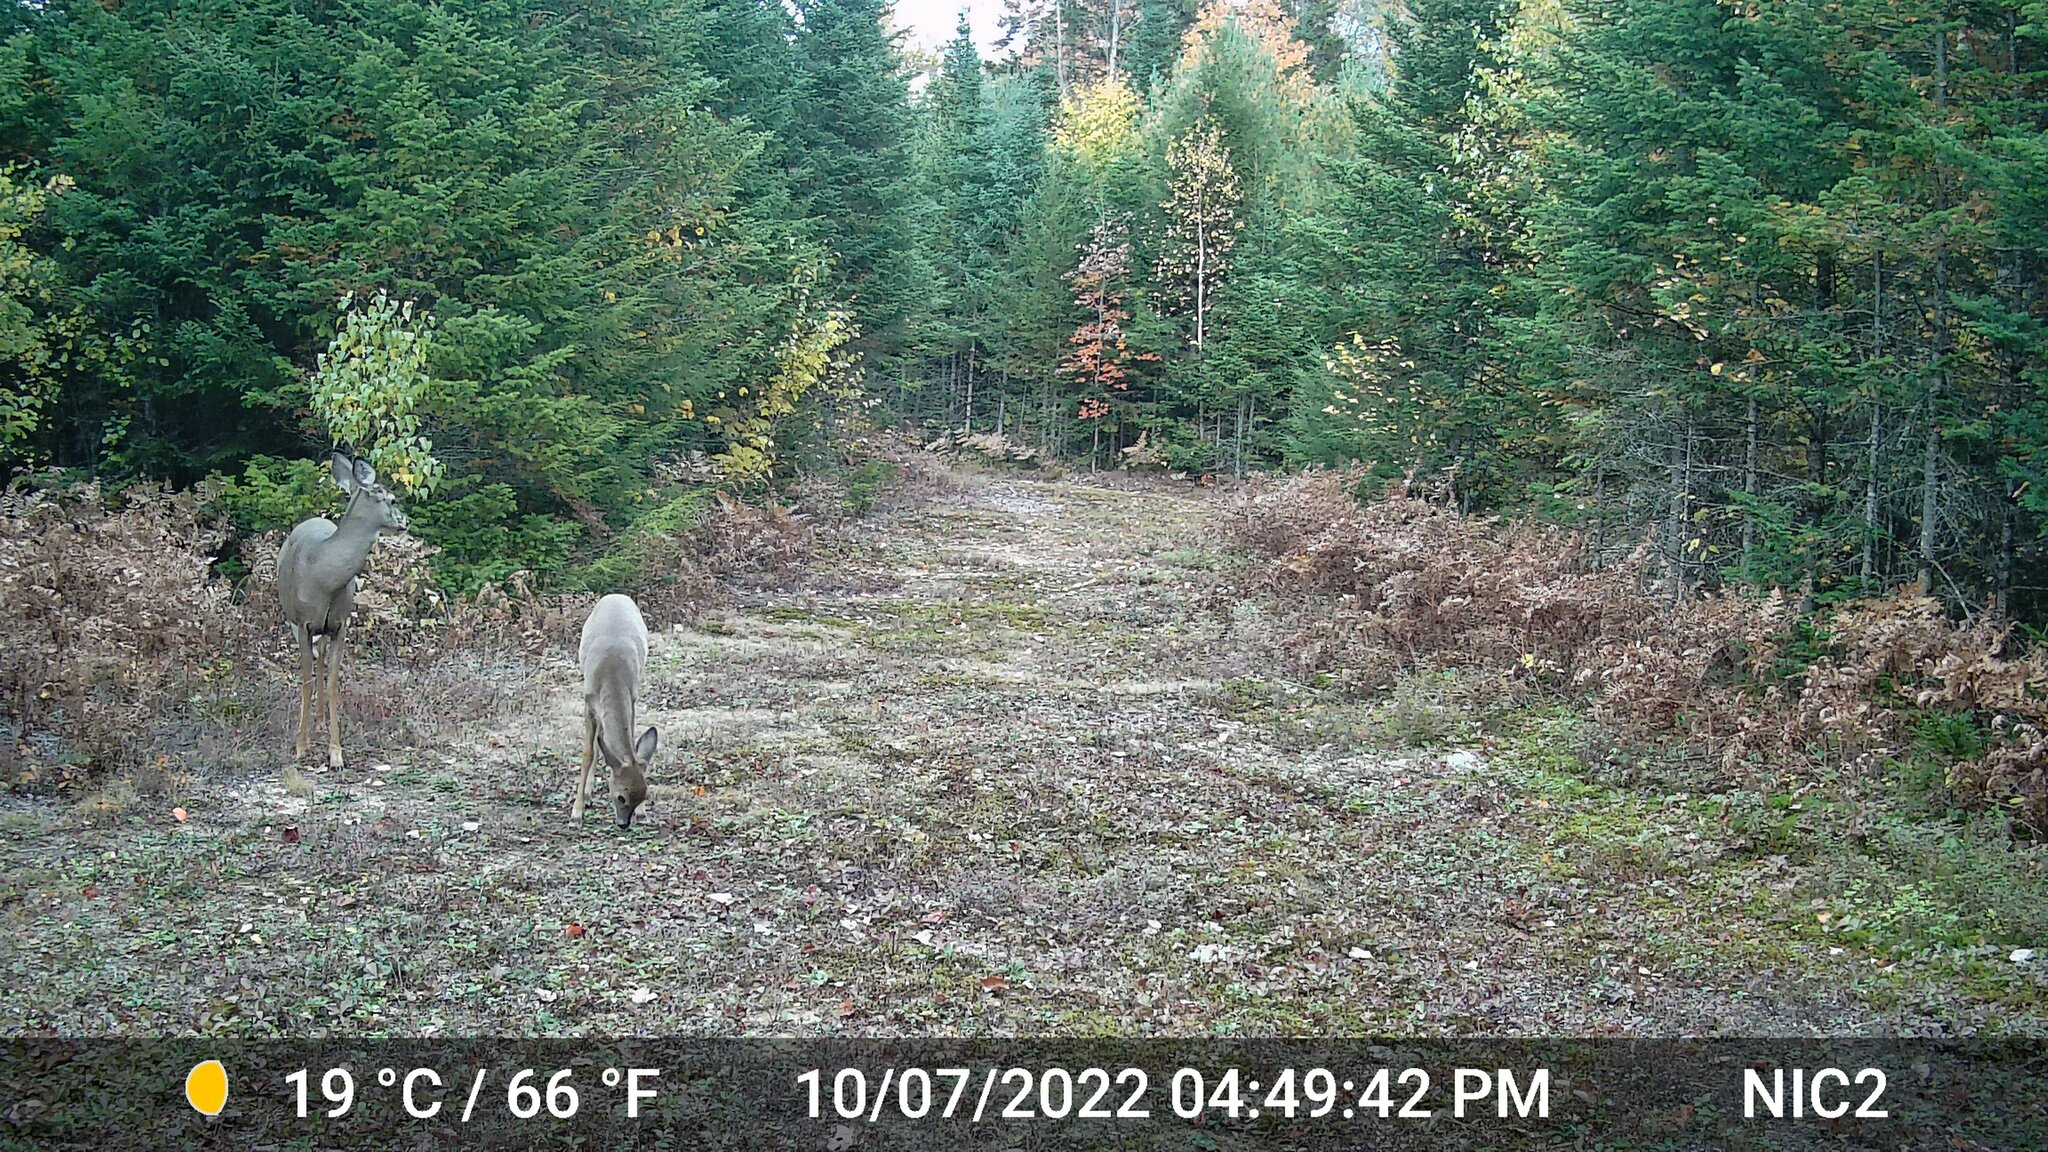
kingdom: Animalia
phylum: Chordata
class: Mammalia
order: Artiodactyla
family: Cervidae
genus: Odocoileus
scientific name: Odocoileus virginianus
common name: White-tailed deer
